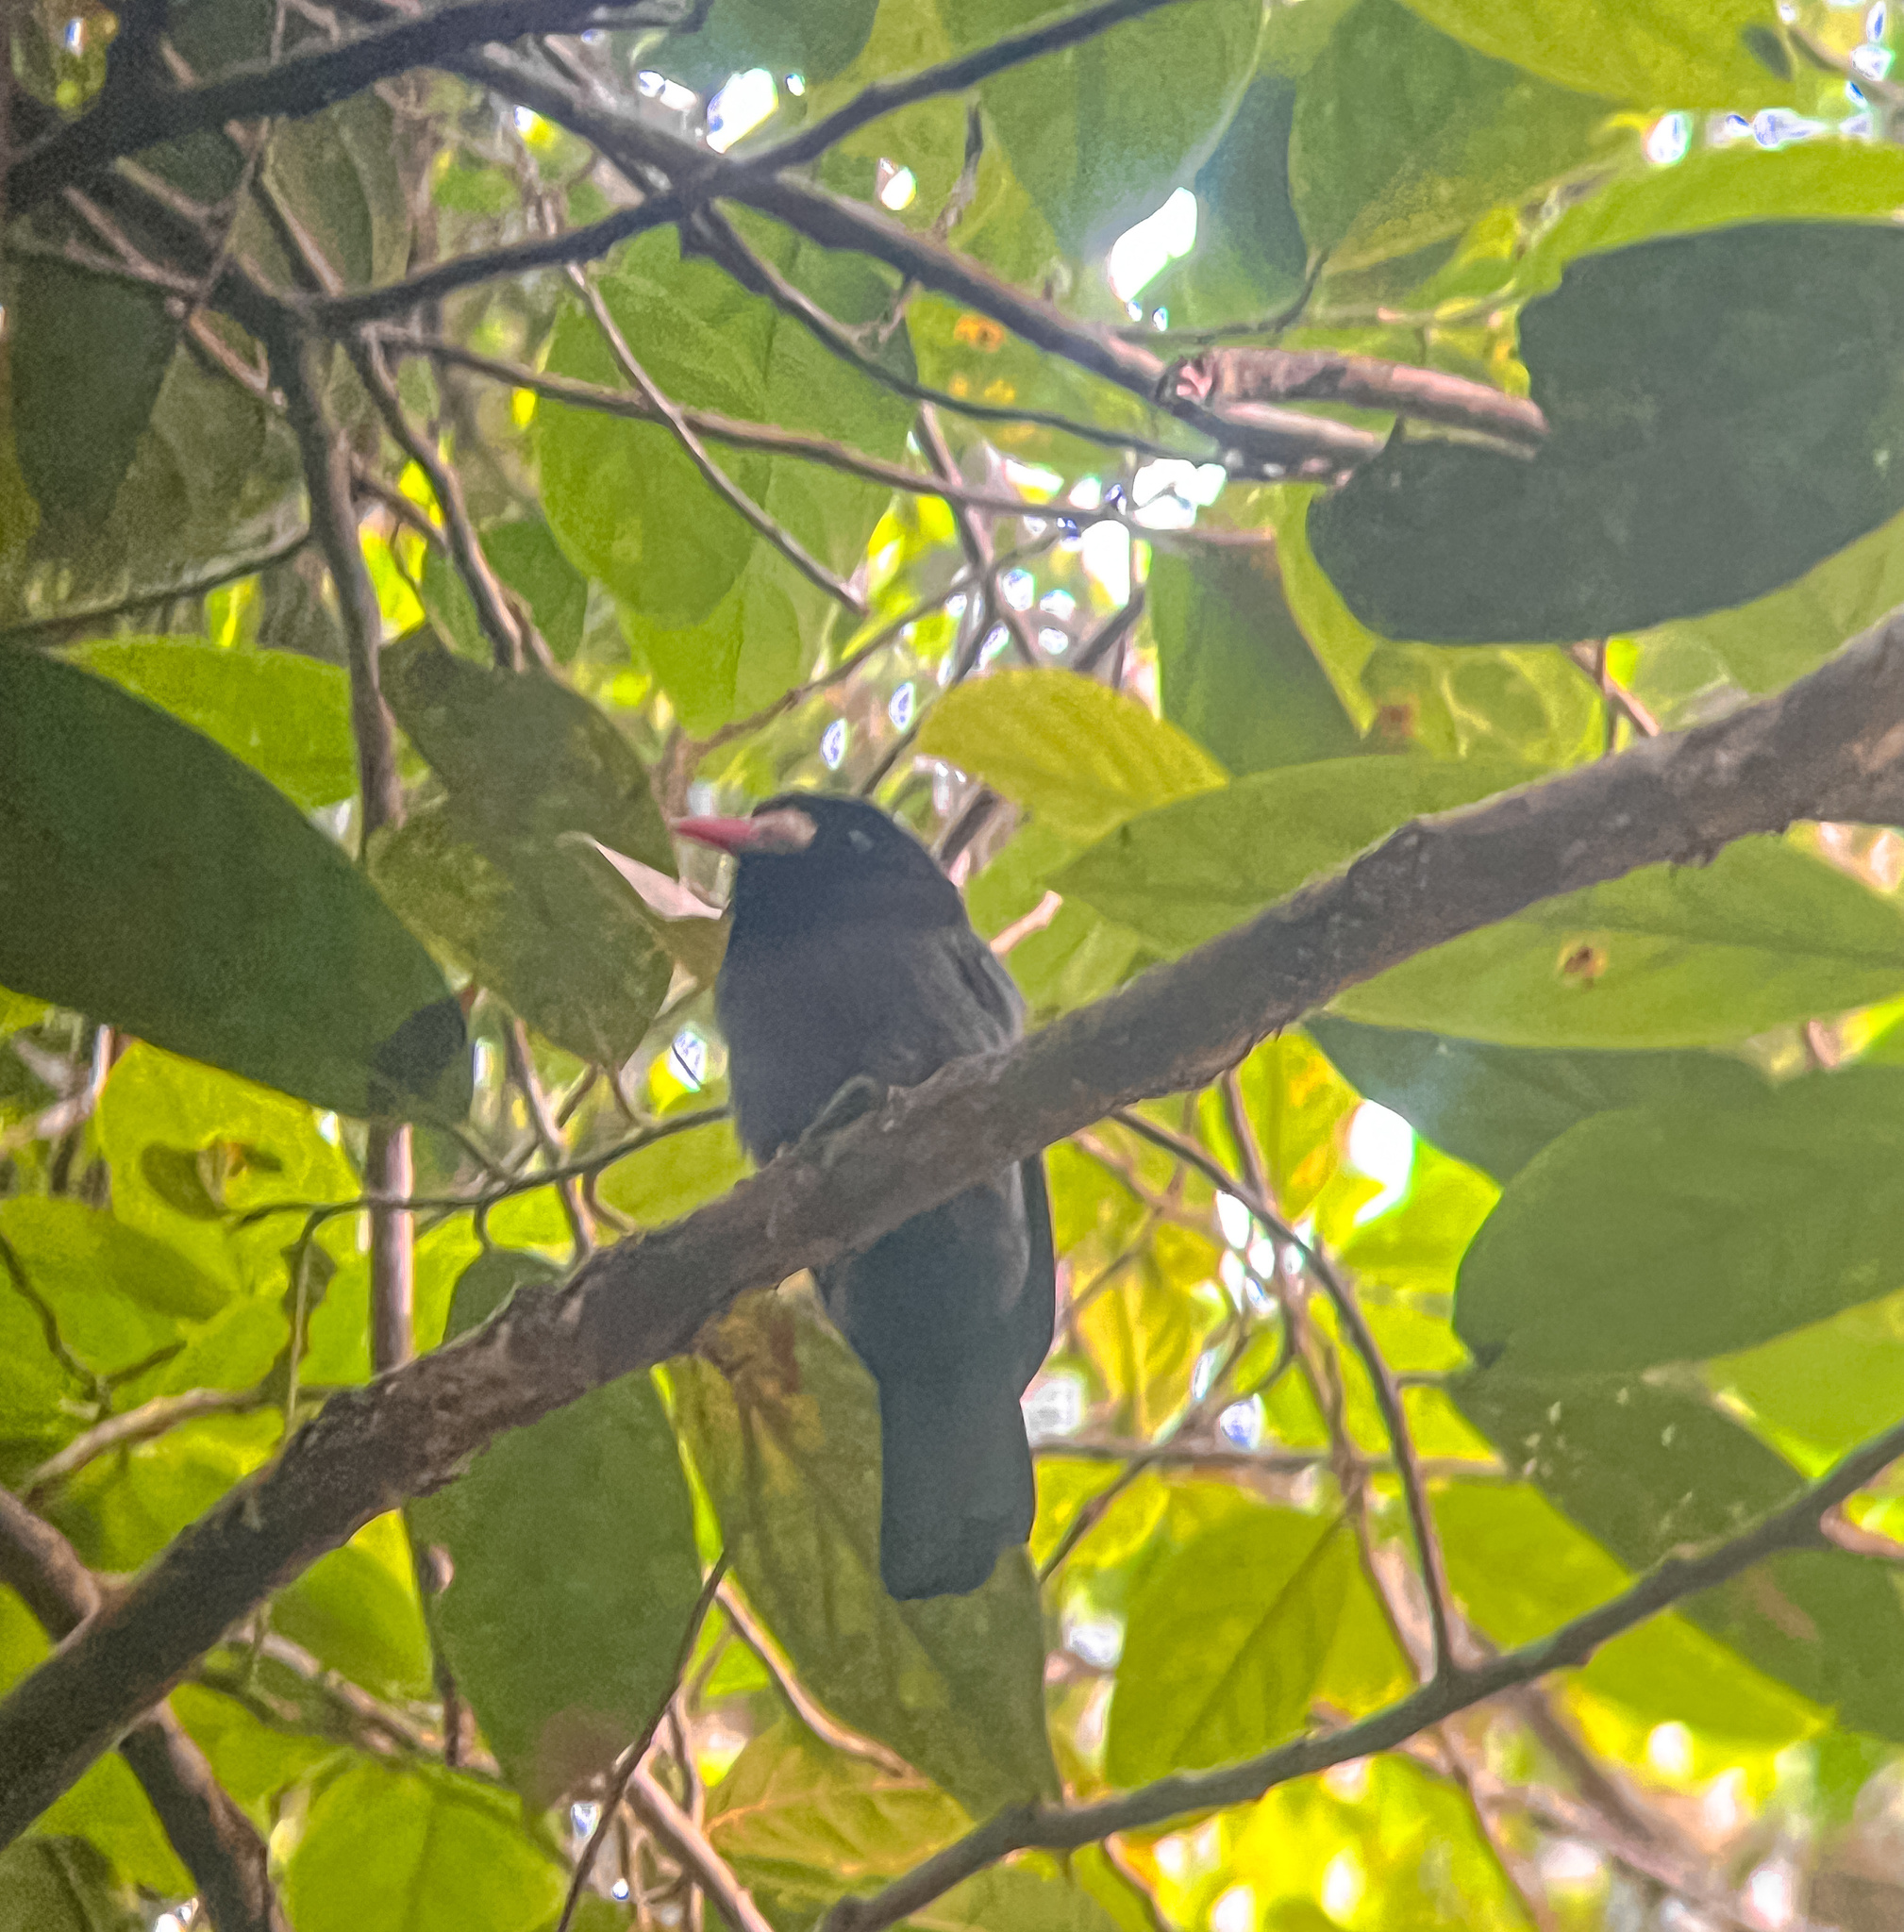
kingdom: Animalia
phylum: Chordata
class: Aves
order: Piciformes
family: Bucconidae
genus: Monasa
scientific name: Monasa morphoeus
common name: White-fronted nunbird
